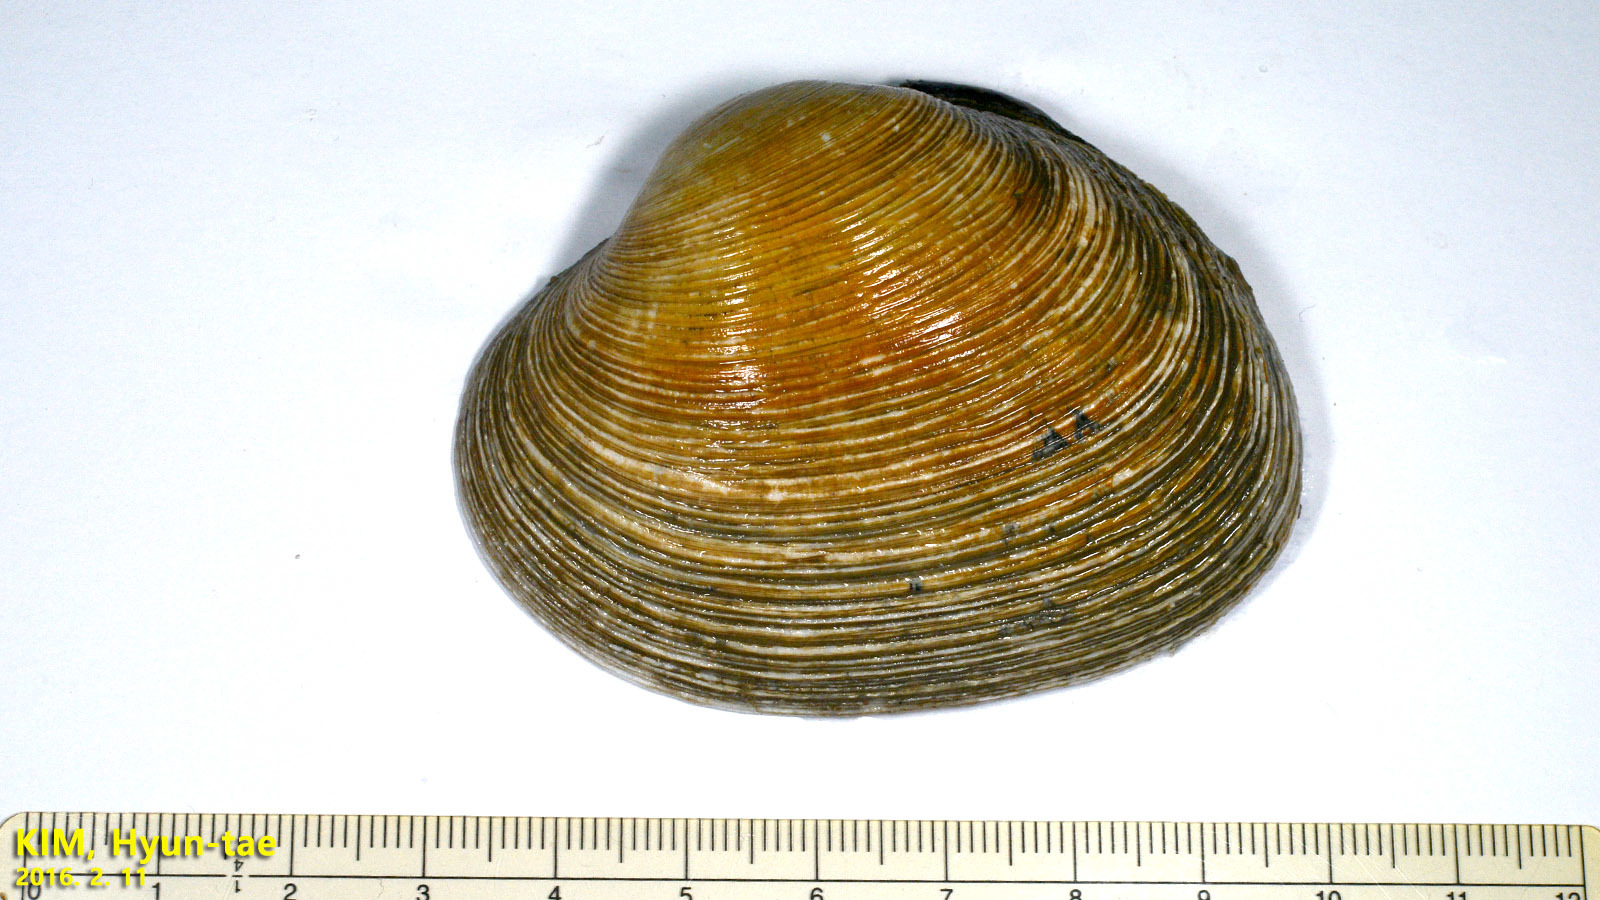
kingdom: Animalia
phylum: Mollusca
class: Bivalvia
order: Venerida
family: Veneridae
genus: Saxidomus
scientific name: Saxidomus purpurata
